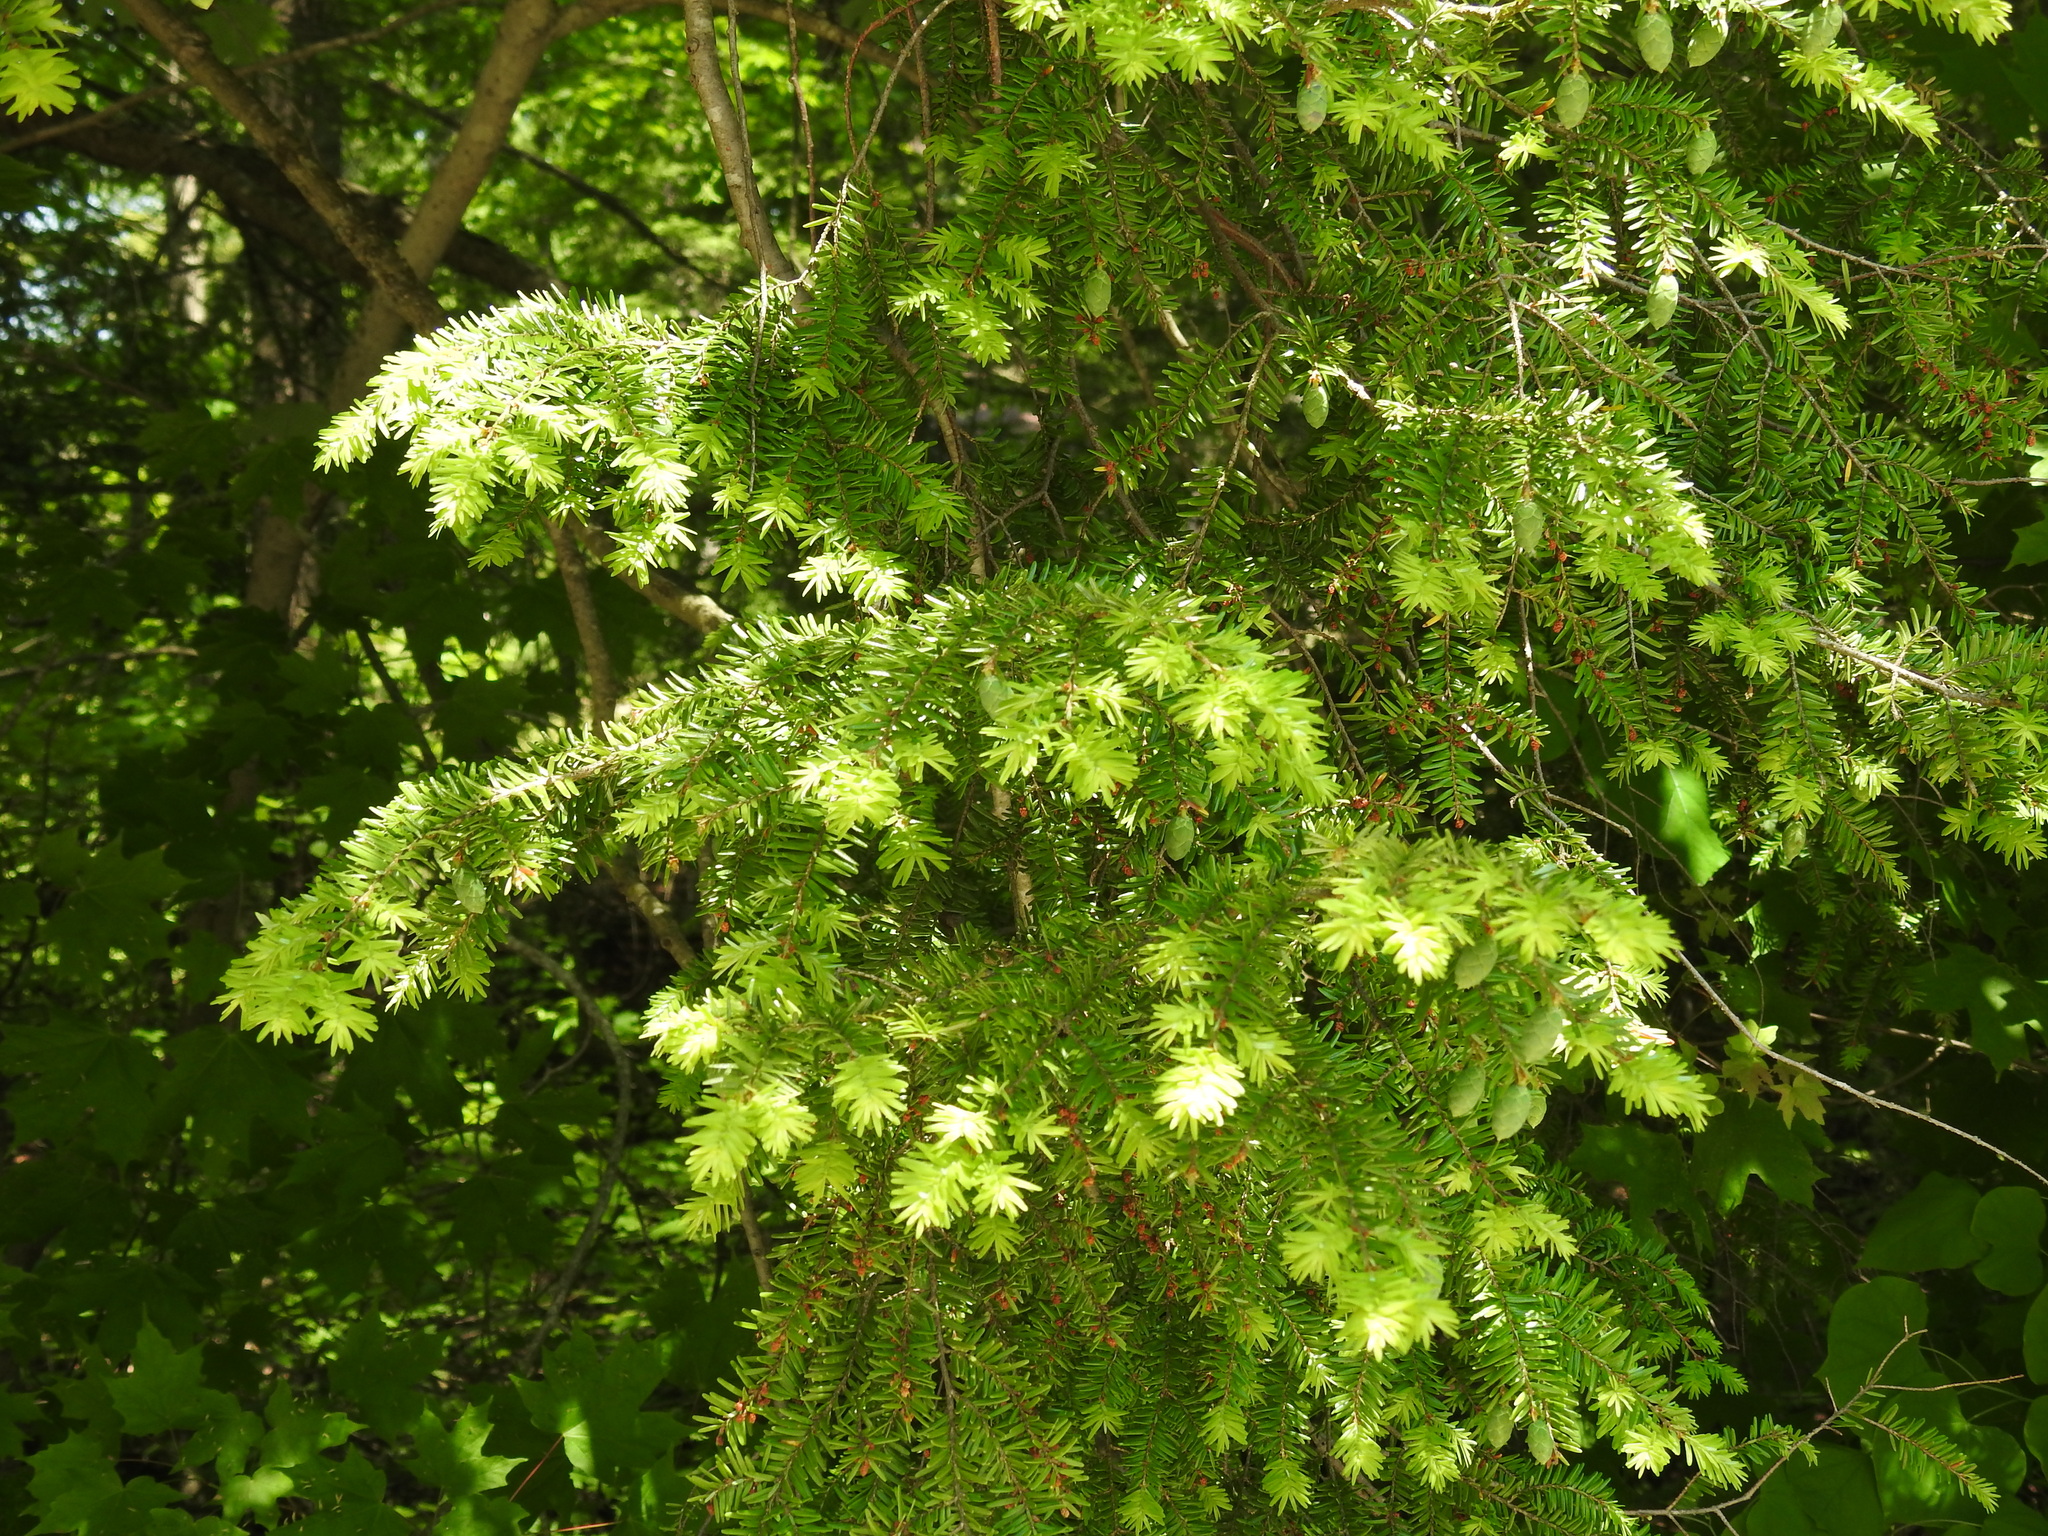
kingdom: Plantae
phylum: Tracheophyta
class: Pinopsida
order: Pinales
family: Pinaceae
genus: Tsuga
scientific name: Tsuga canadensis
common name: Eastern hemlock
